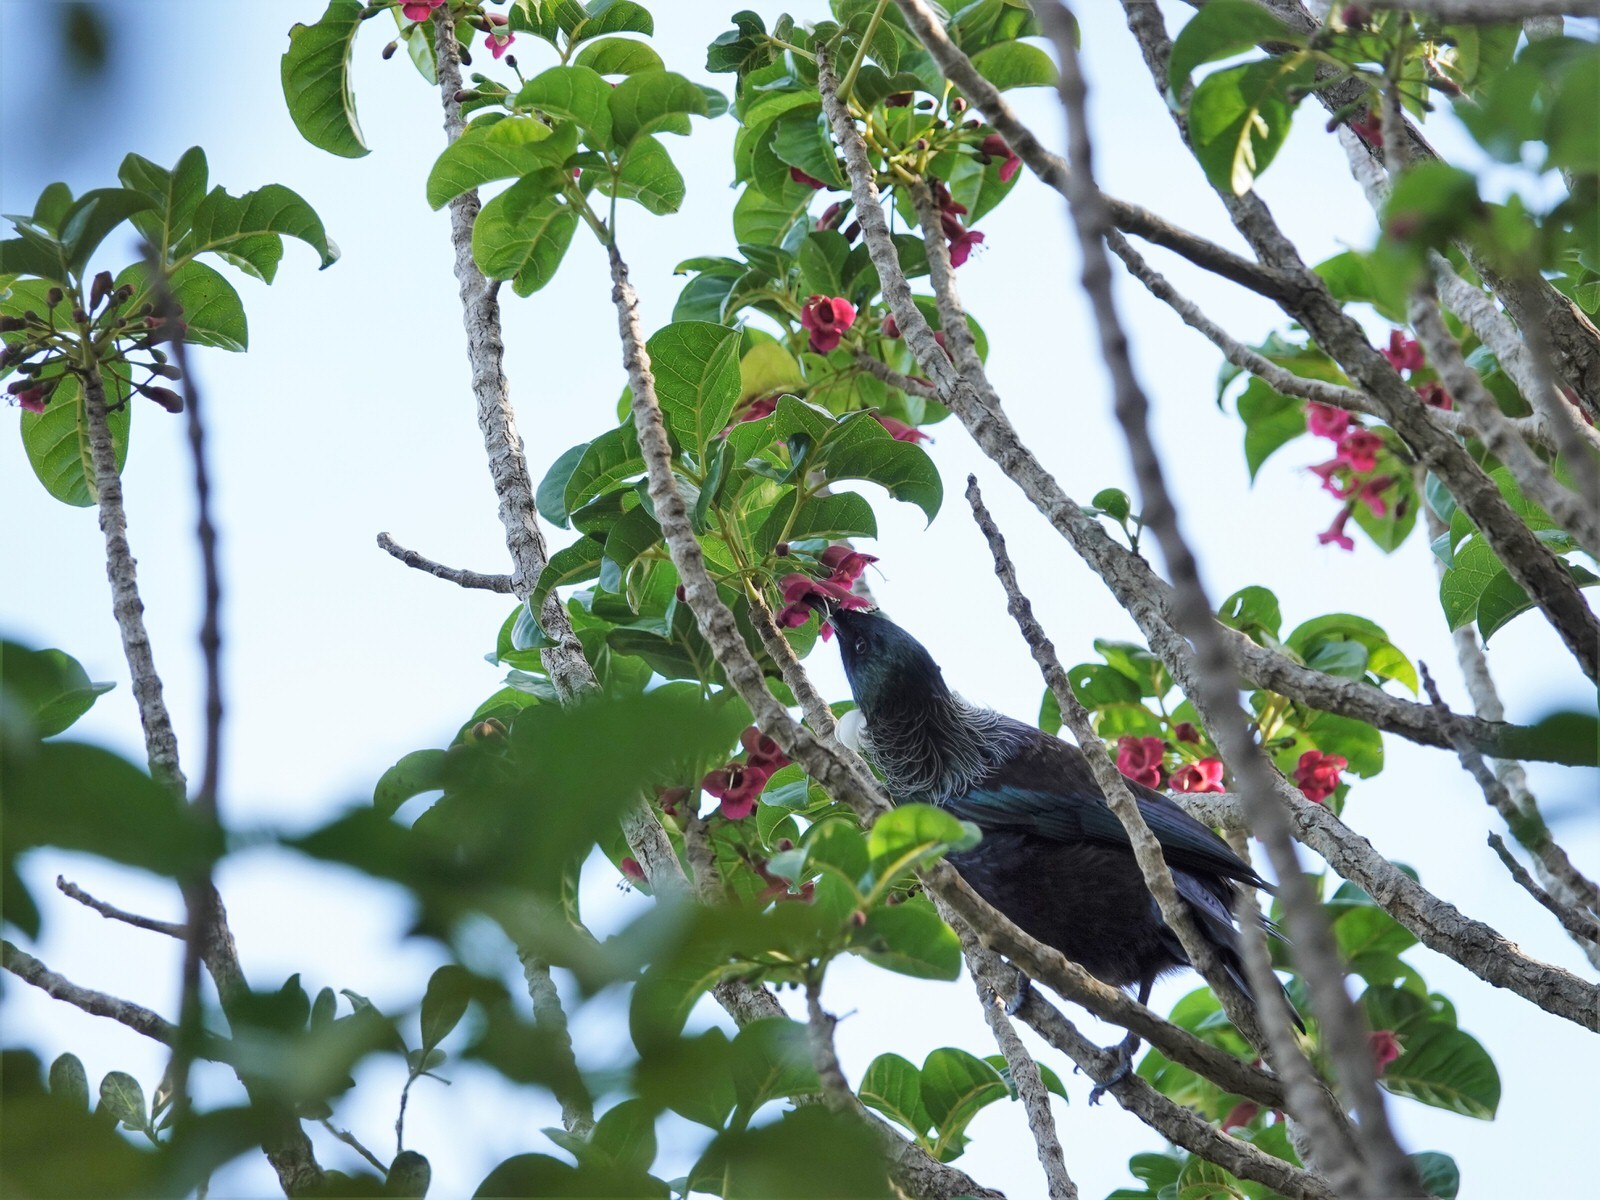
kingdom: Animalia
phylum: Chordata
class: Aves
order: Passeriformes
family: Meliphagidae
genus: Prosthemadera
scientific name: Prosthemadera novaeseelandiae
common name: Tui
